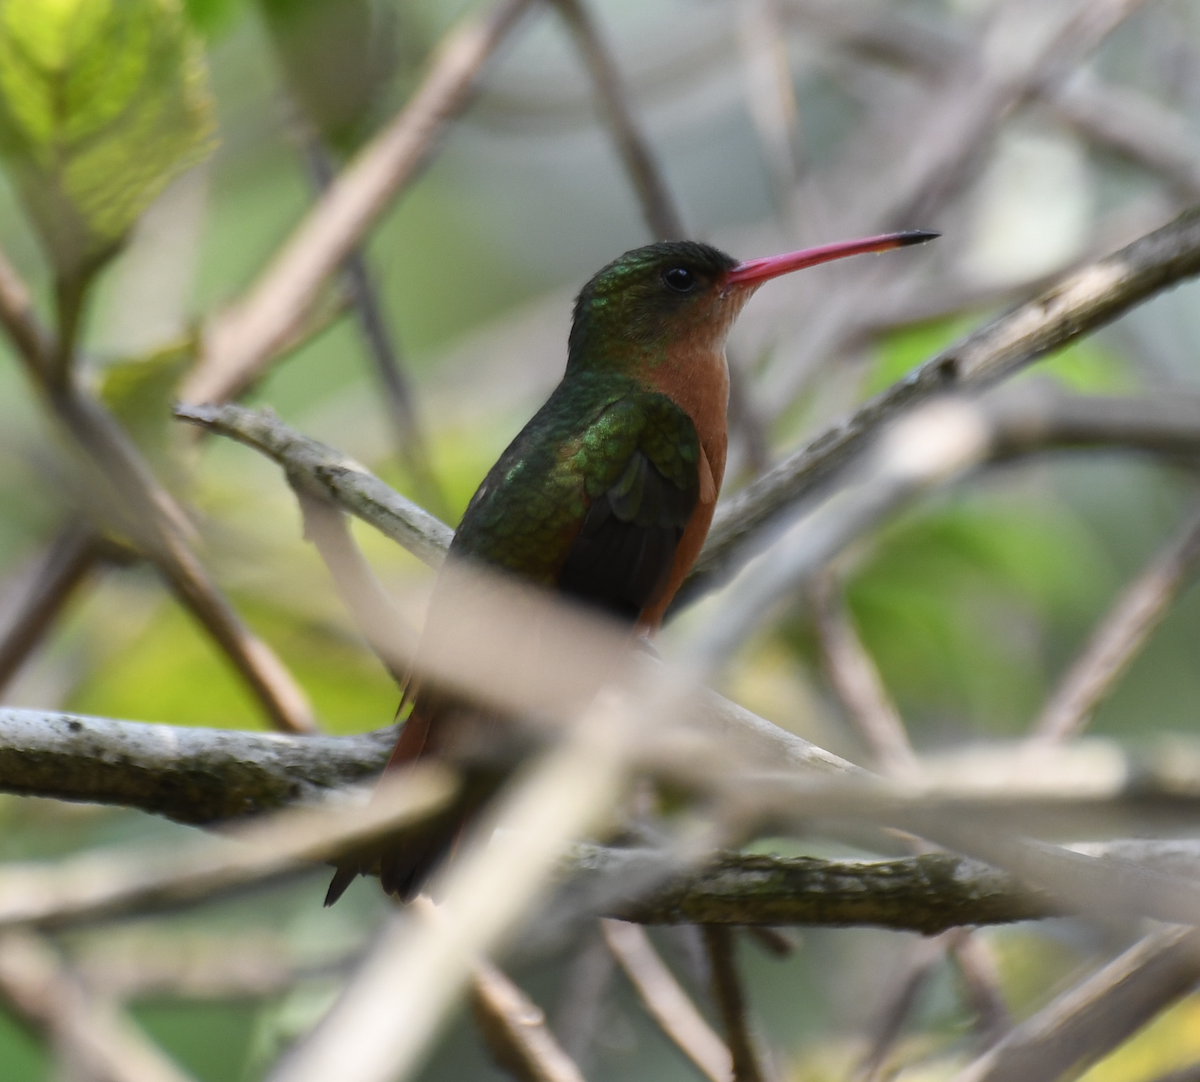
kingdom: Animalia
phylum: Chordata
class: Aves
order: Apodiformes
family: Trochilidae
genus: Amazilia
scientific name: Amazilia rutila
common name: Cinnamon hummingbird
